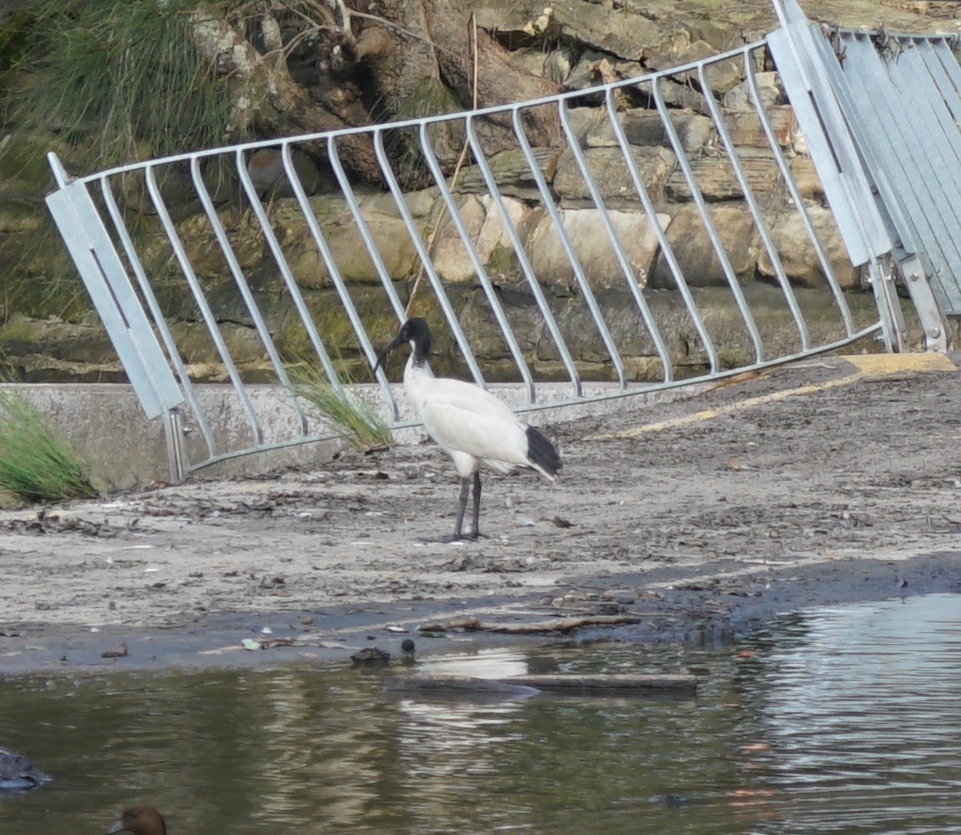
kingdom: Animalia
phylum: Chordata
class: Aves
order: Pelecaniformes
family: Threskiornithidae
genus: Threskiornis
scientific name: Threskiornis molucca
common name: Australian white ibis
